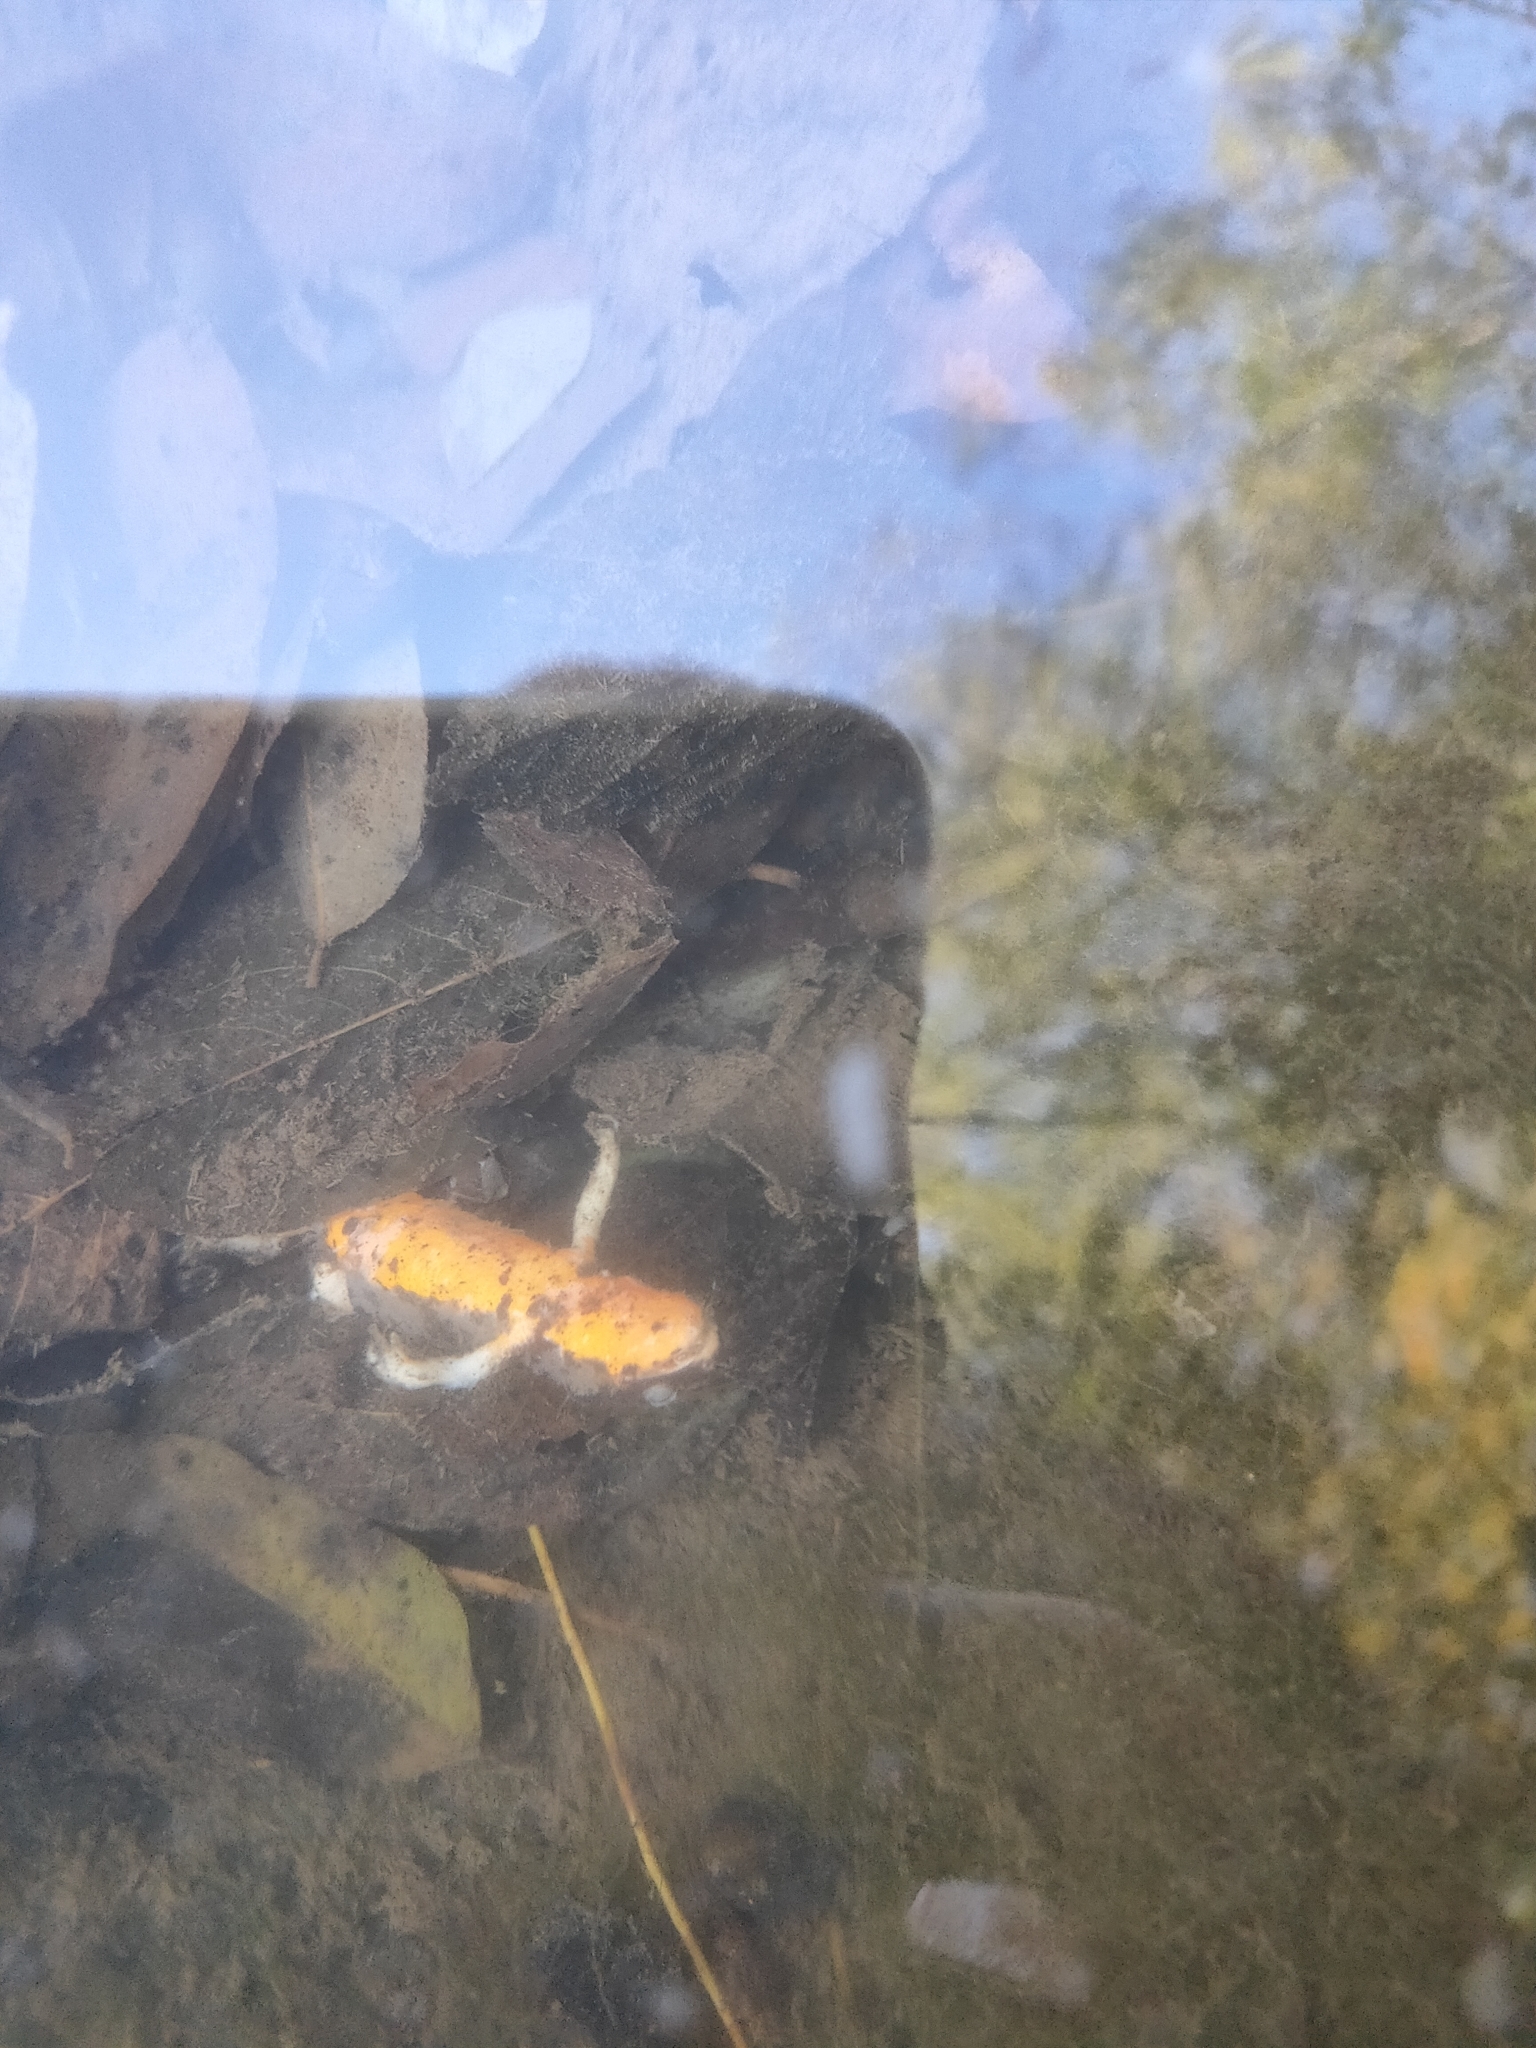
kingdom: Animalia
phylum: Chordata
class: Amphibia
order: Caudata
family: Salamandridae
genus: Cynops
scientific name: Cynops pyrrhogaster
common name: Japanese fire-bellied newt
